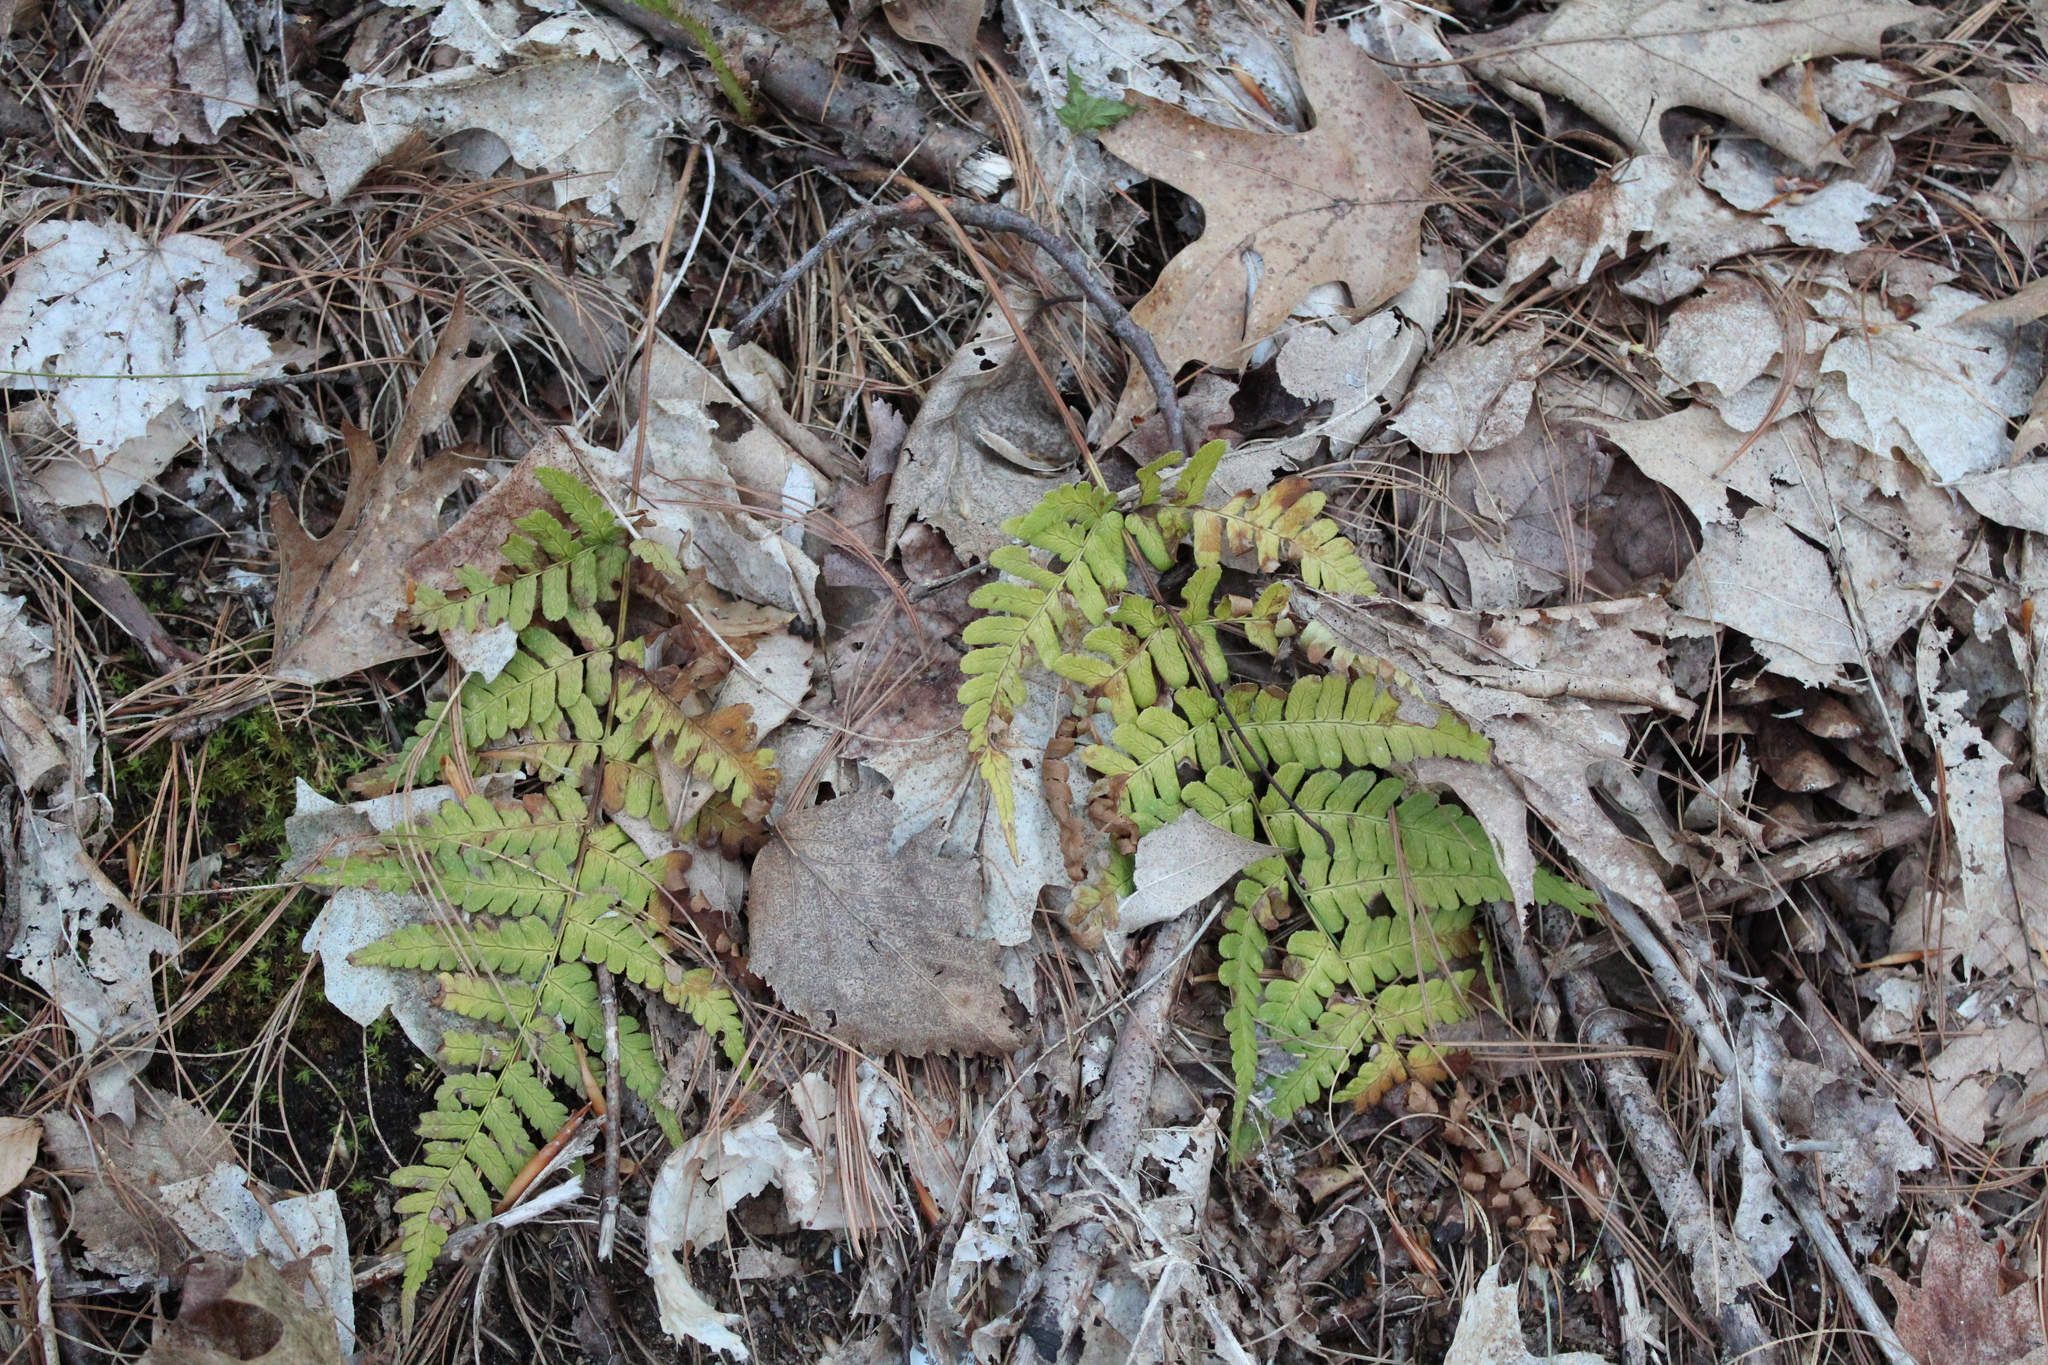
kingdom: Plantae
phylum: Tracheophyta
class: Polypodiopsida
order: Polypodiales
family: Dryopteridaceae
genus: Dryopteris
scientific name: Dryopteris marginalis
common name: Marginal wood fern
